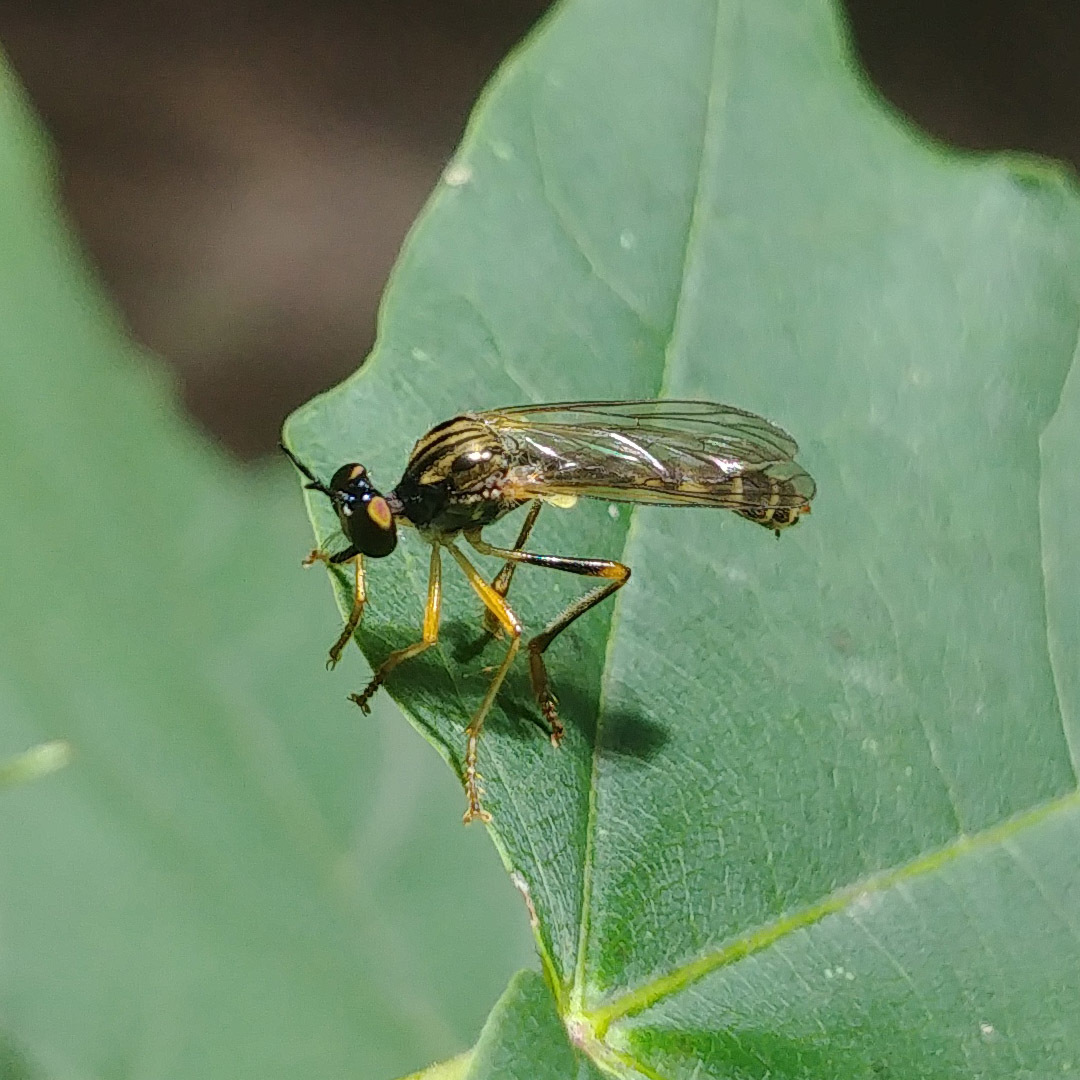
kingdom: Animalia
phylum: Arthropoda
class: Insecta
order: Diptera
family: Asilidae
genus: Dioctria
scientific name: Dioctria linearis
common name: Small yellow-legged robberfly
